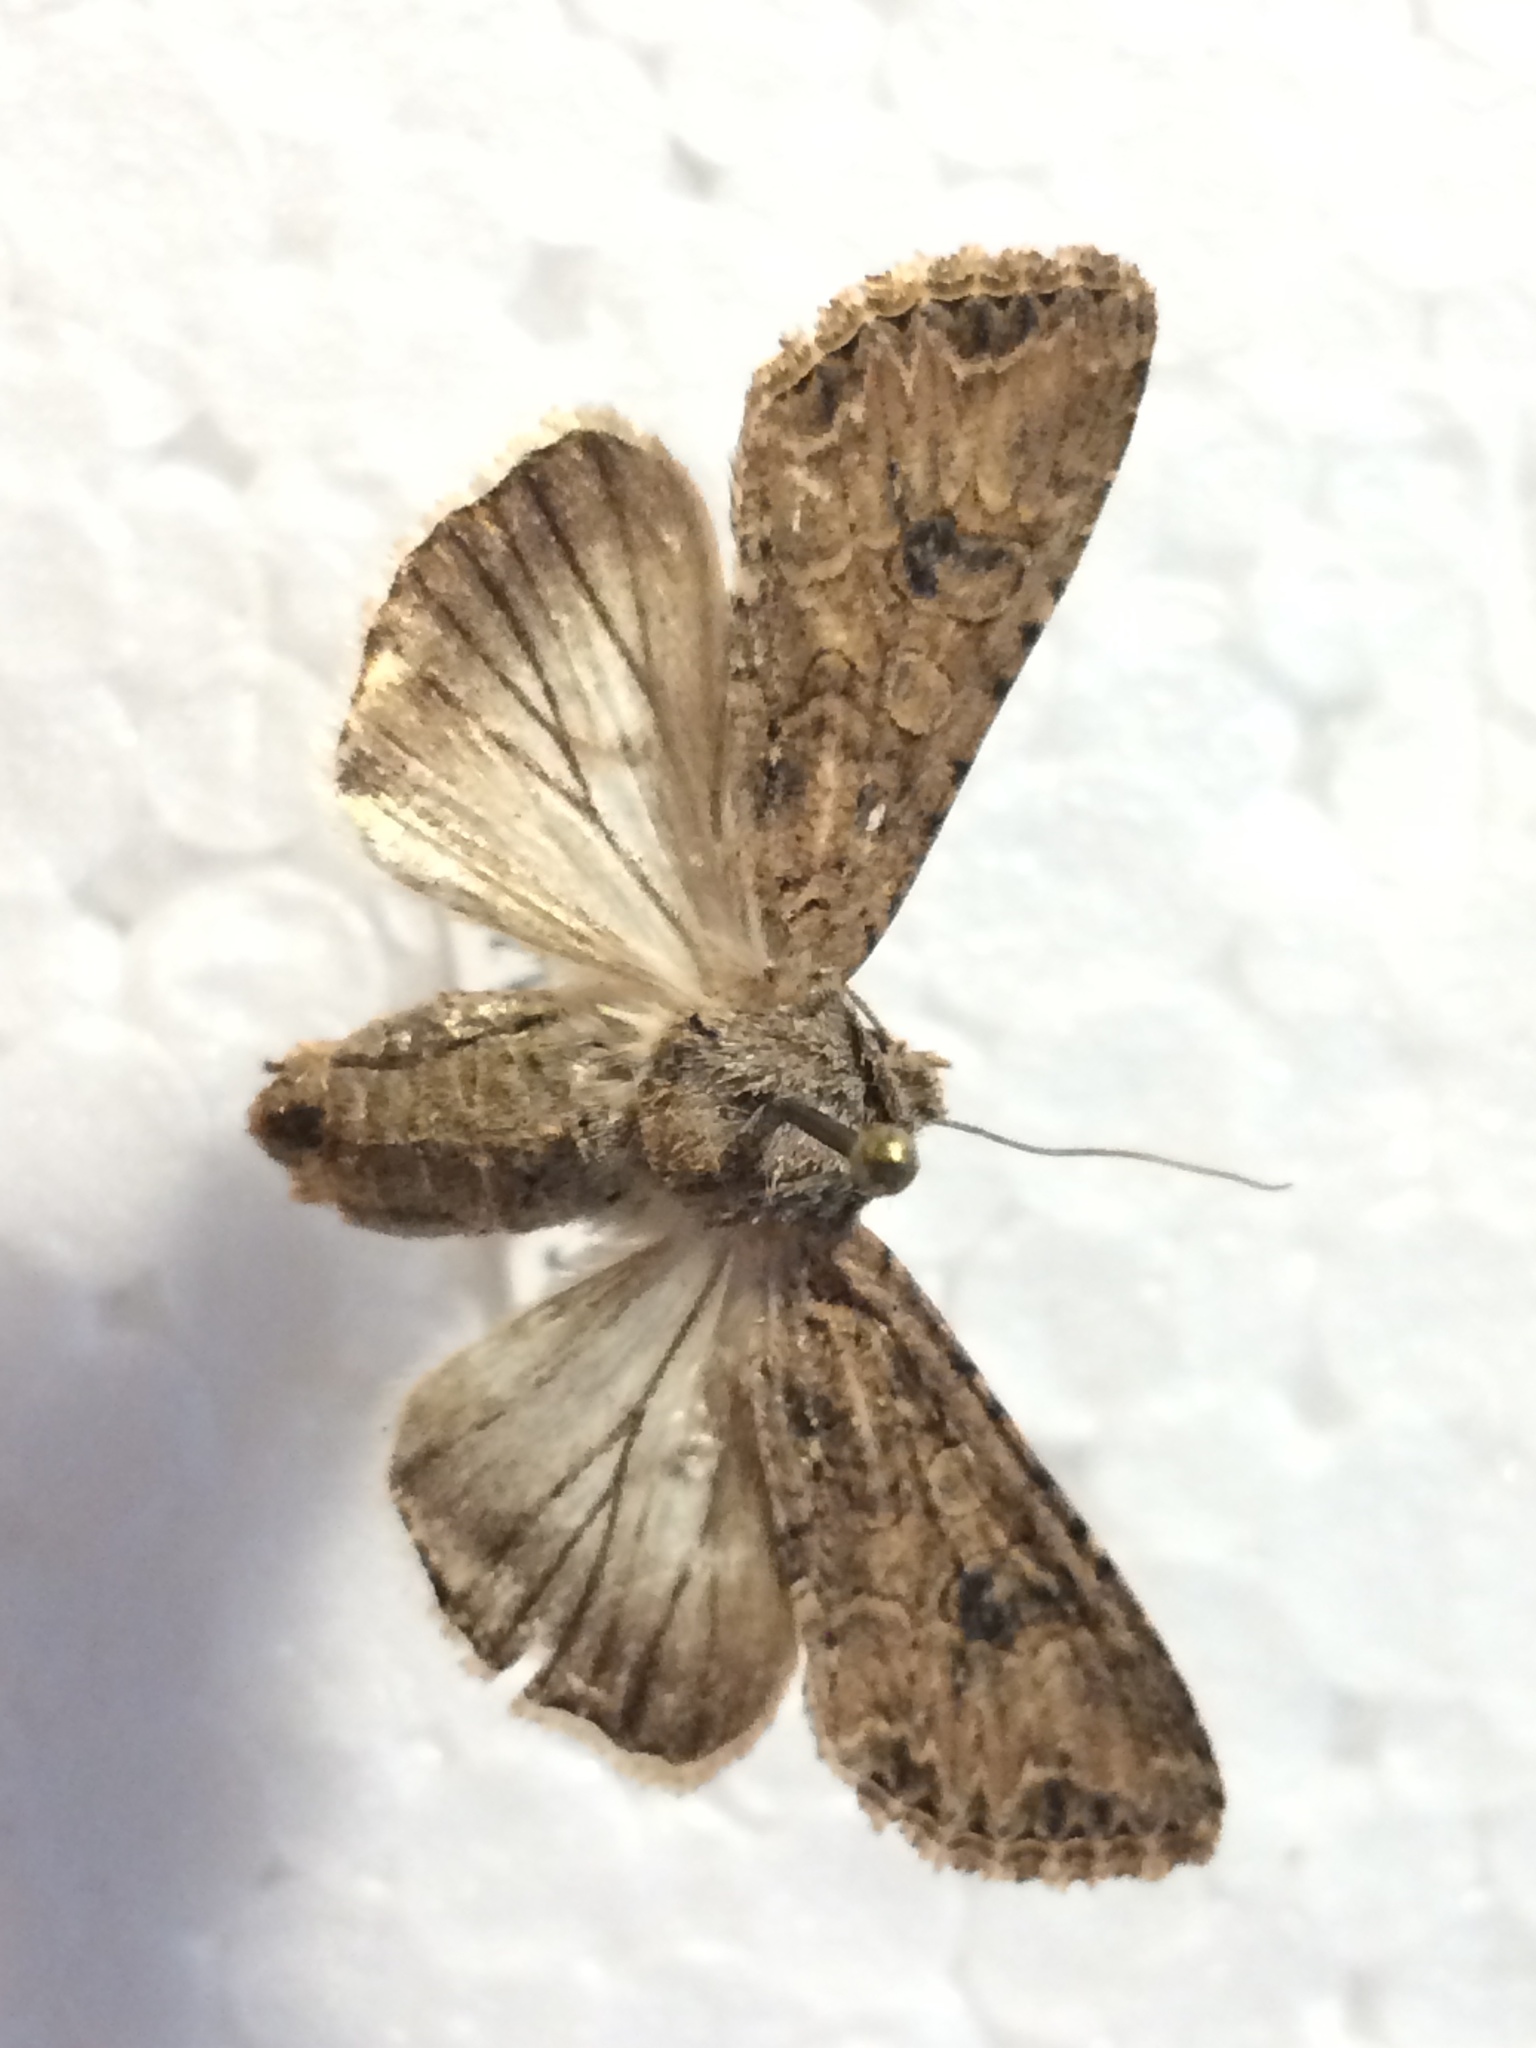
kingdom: Animalia
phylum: Arthropoda
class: Insecta
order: Lepidoptera
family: Noctuidae
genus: Anarta
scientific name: Anarta trifolii
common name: Clover cutworm moth
